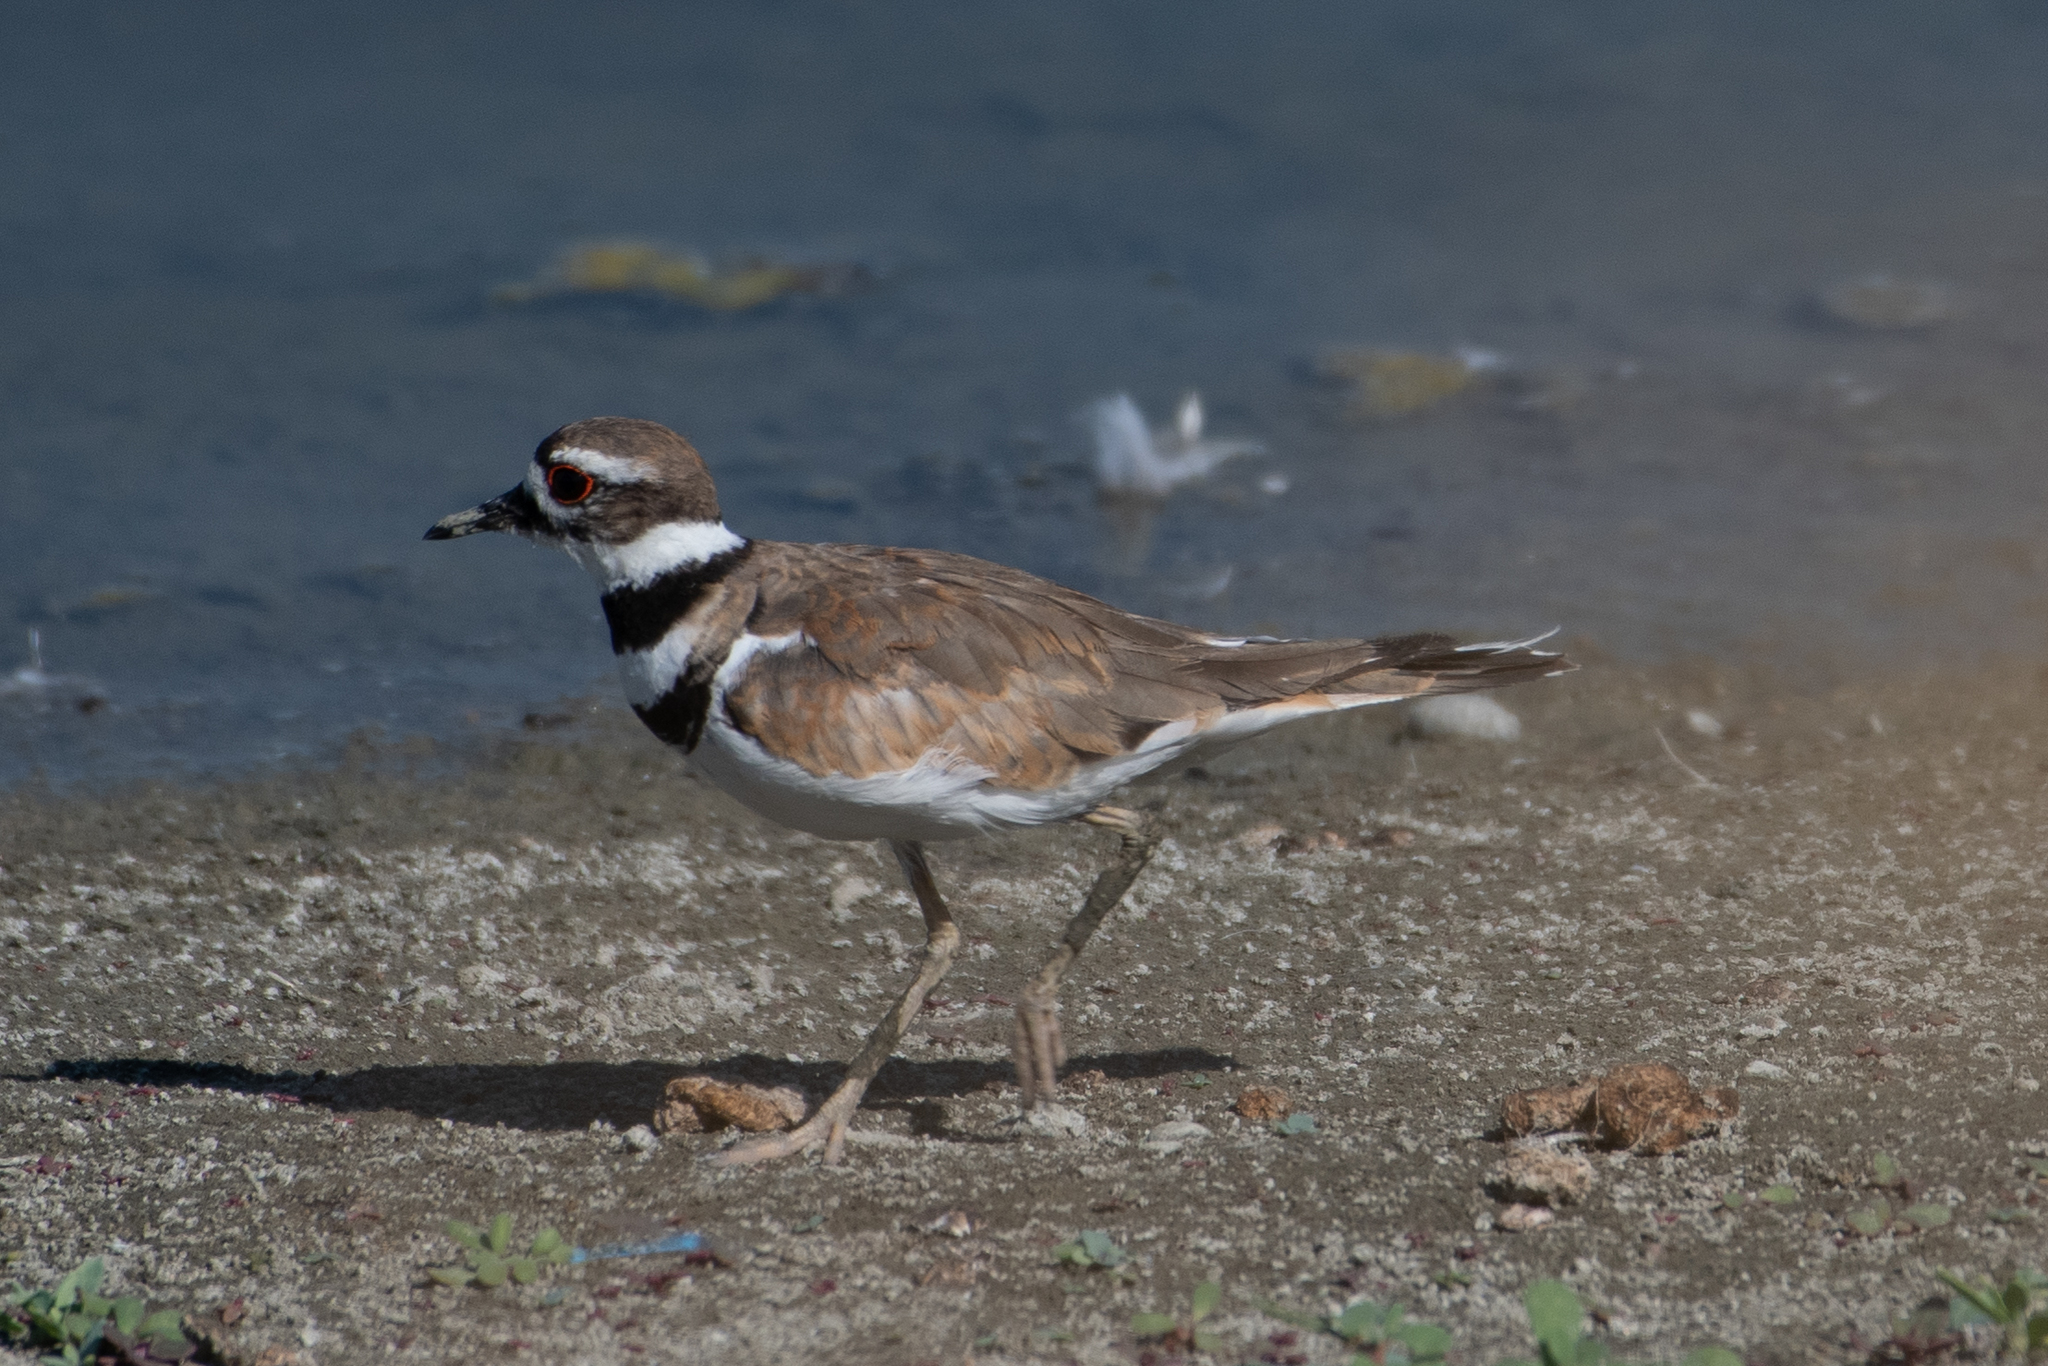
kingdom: Animalia
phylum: Chordata
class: Aves
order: Charadriiformes
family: Charadriidae
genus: Charadrius
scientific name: Charadrius vociferus
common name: Killdeer
